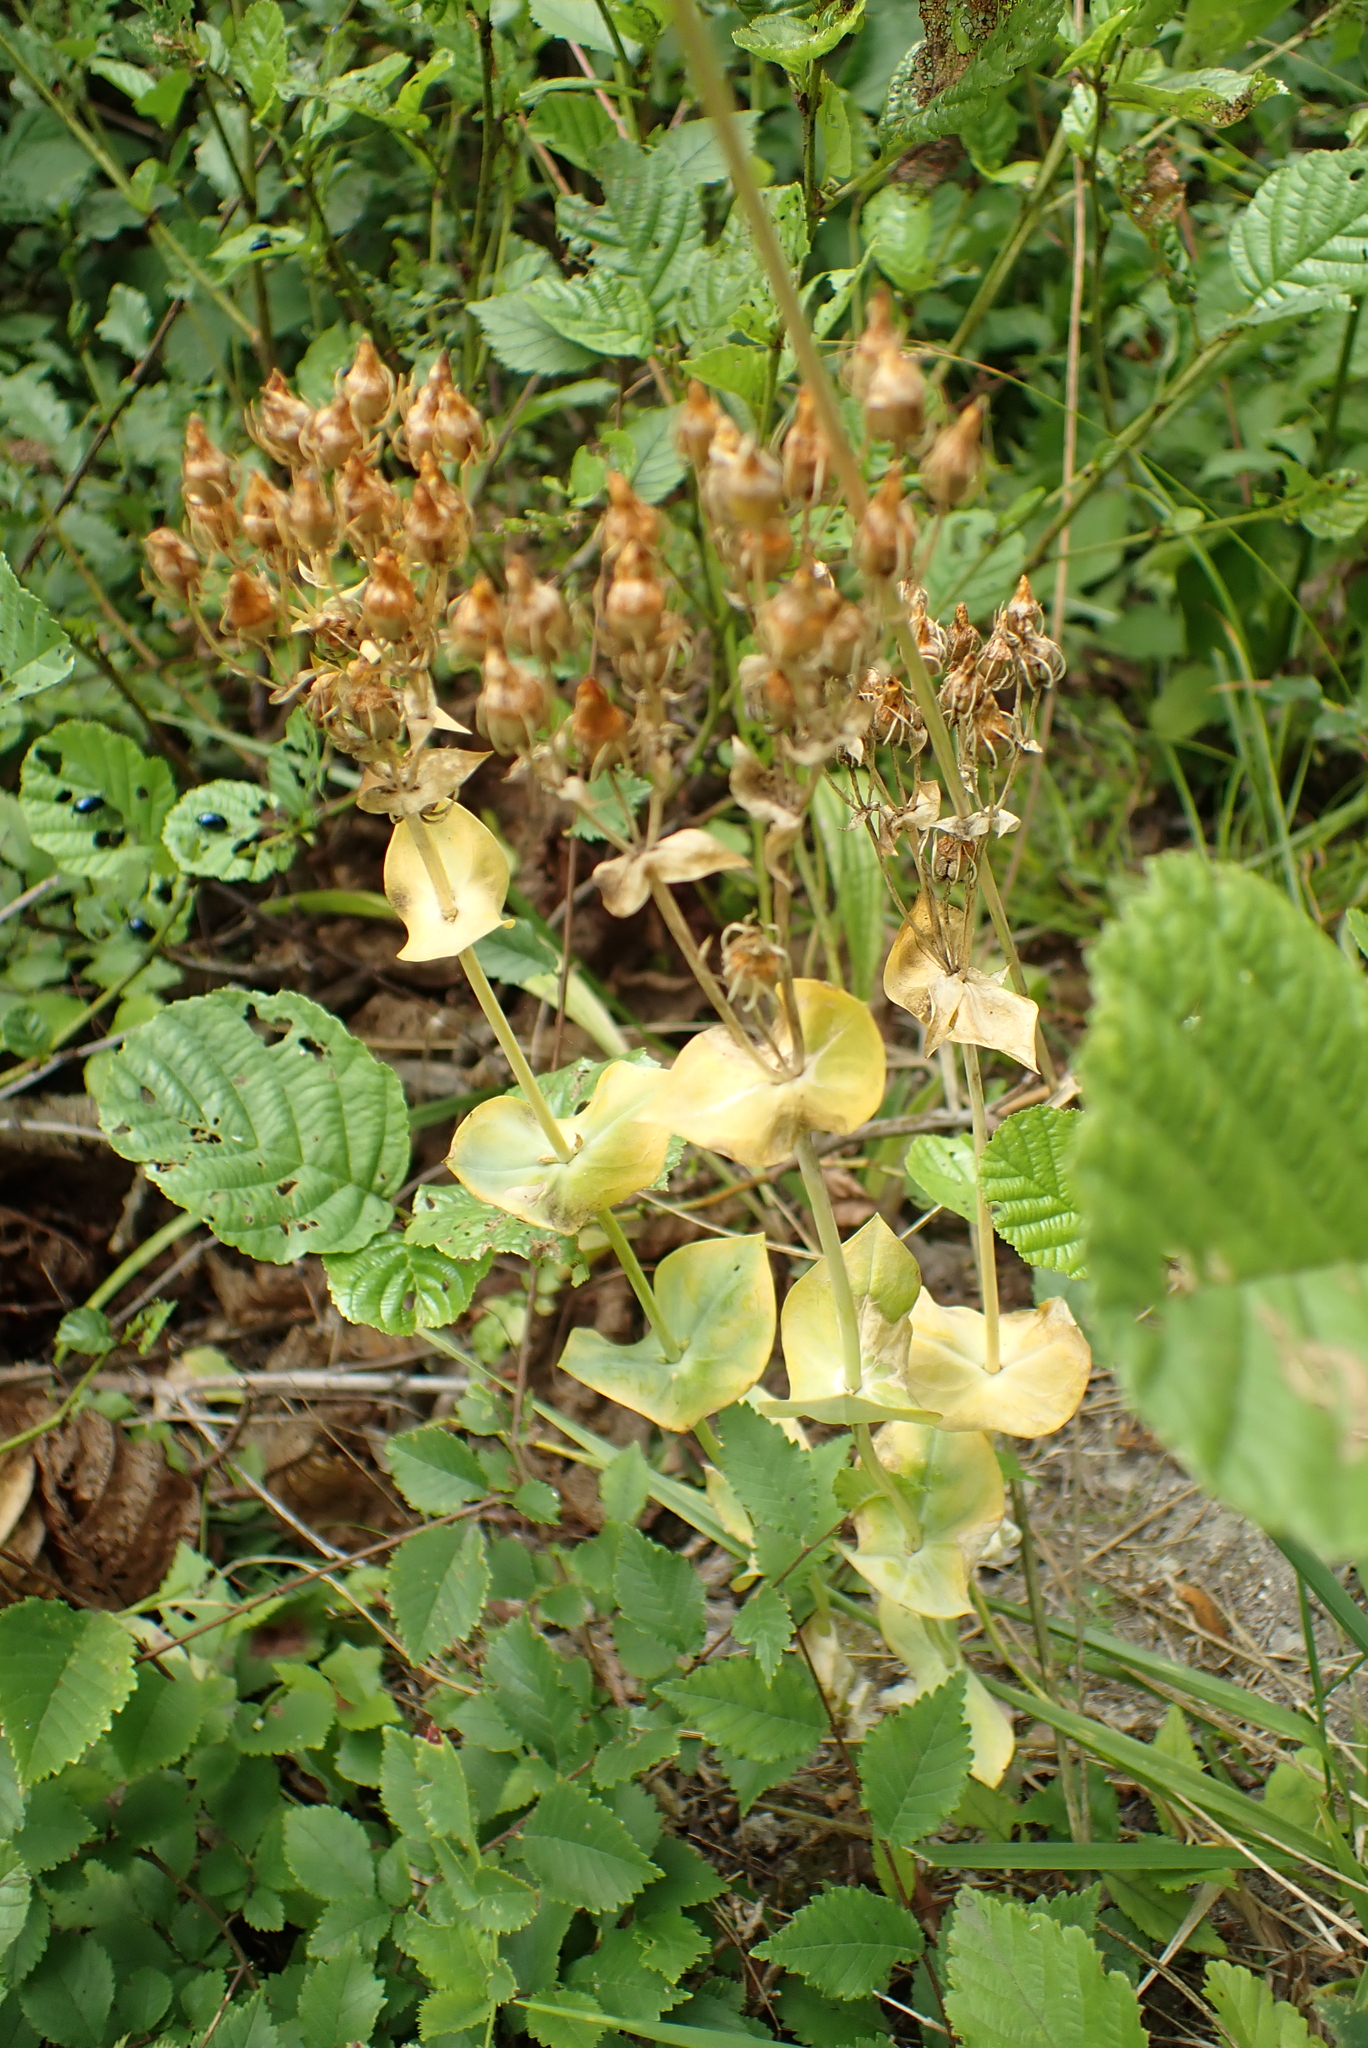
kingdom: Plantae
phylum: Tracheophyta
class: Magnoliopsida
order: Gentianales
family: Gentianaceae
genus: Blackstonia
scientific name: Blackstonia perfoliata
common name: Yellow-wort
